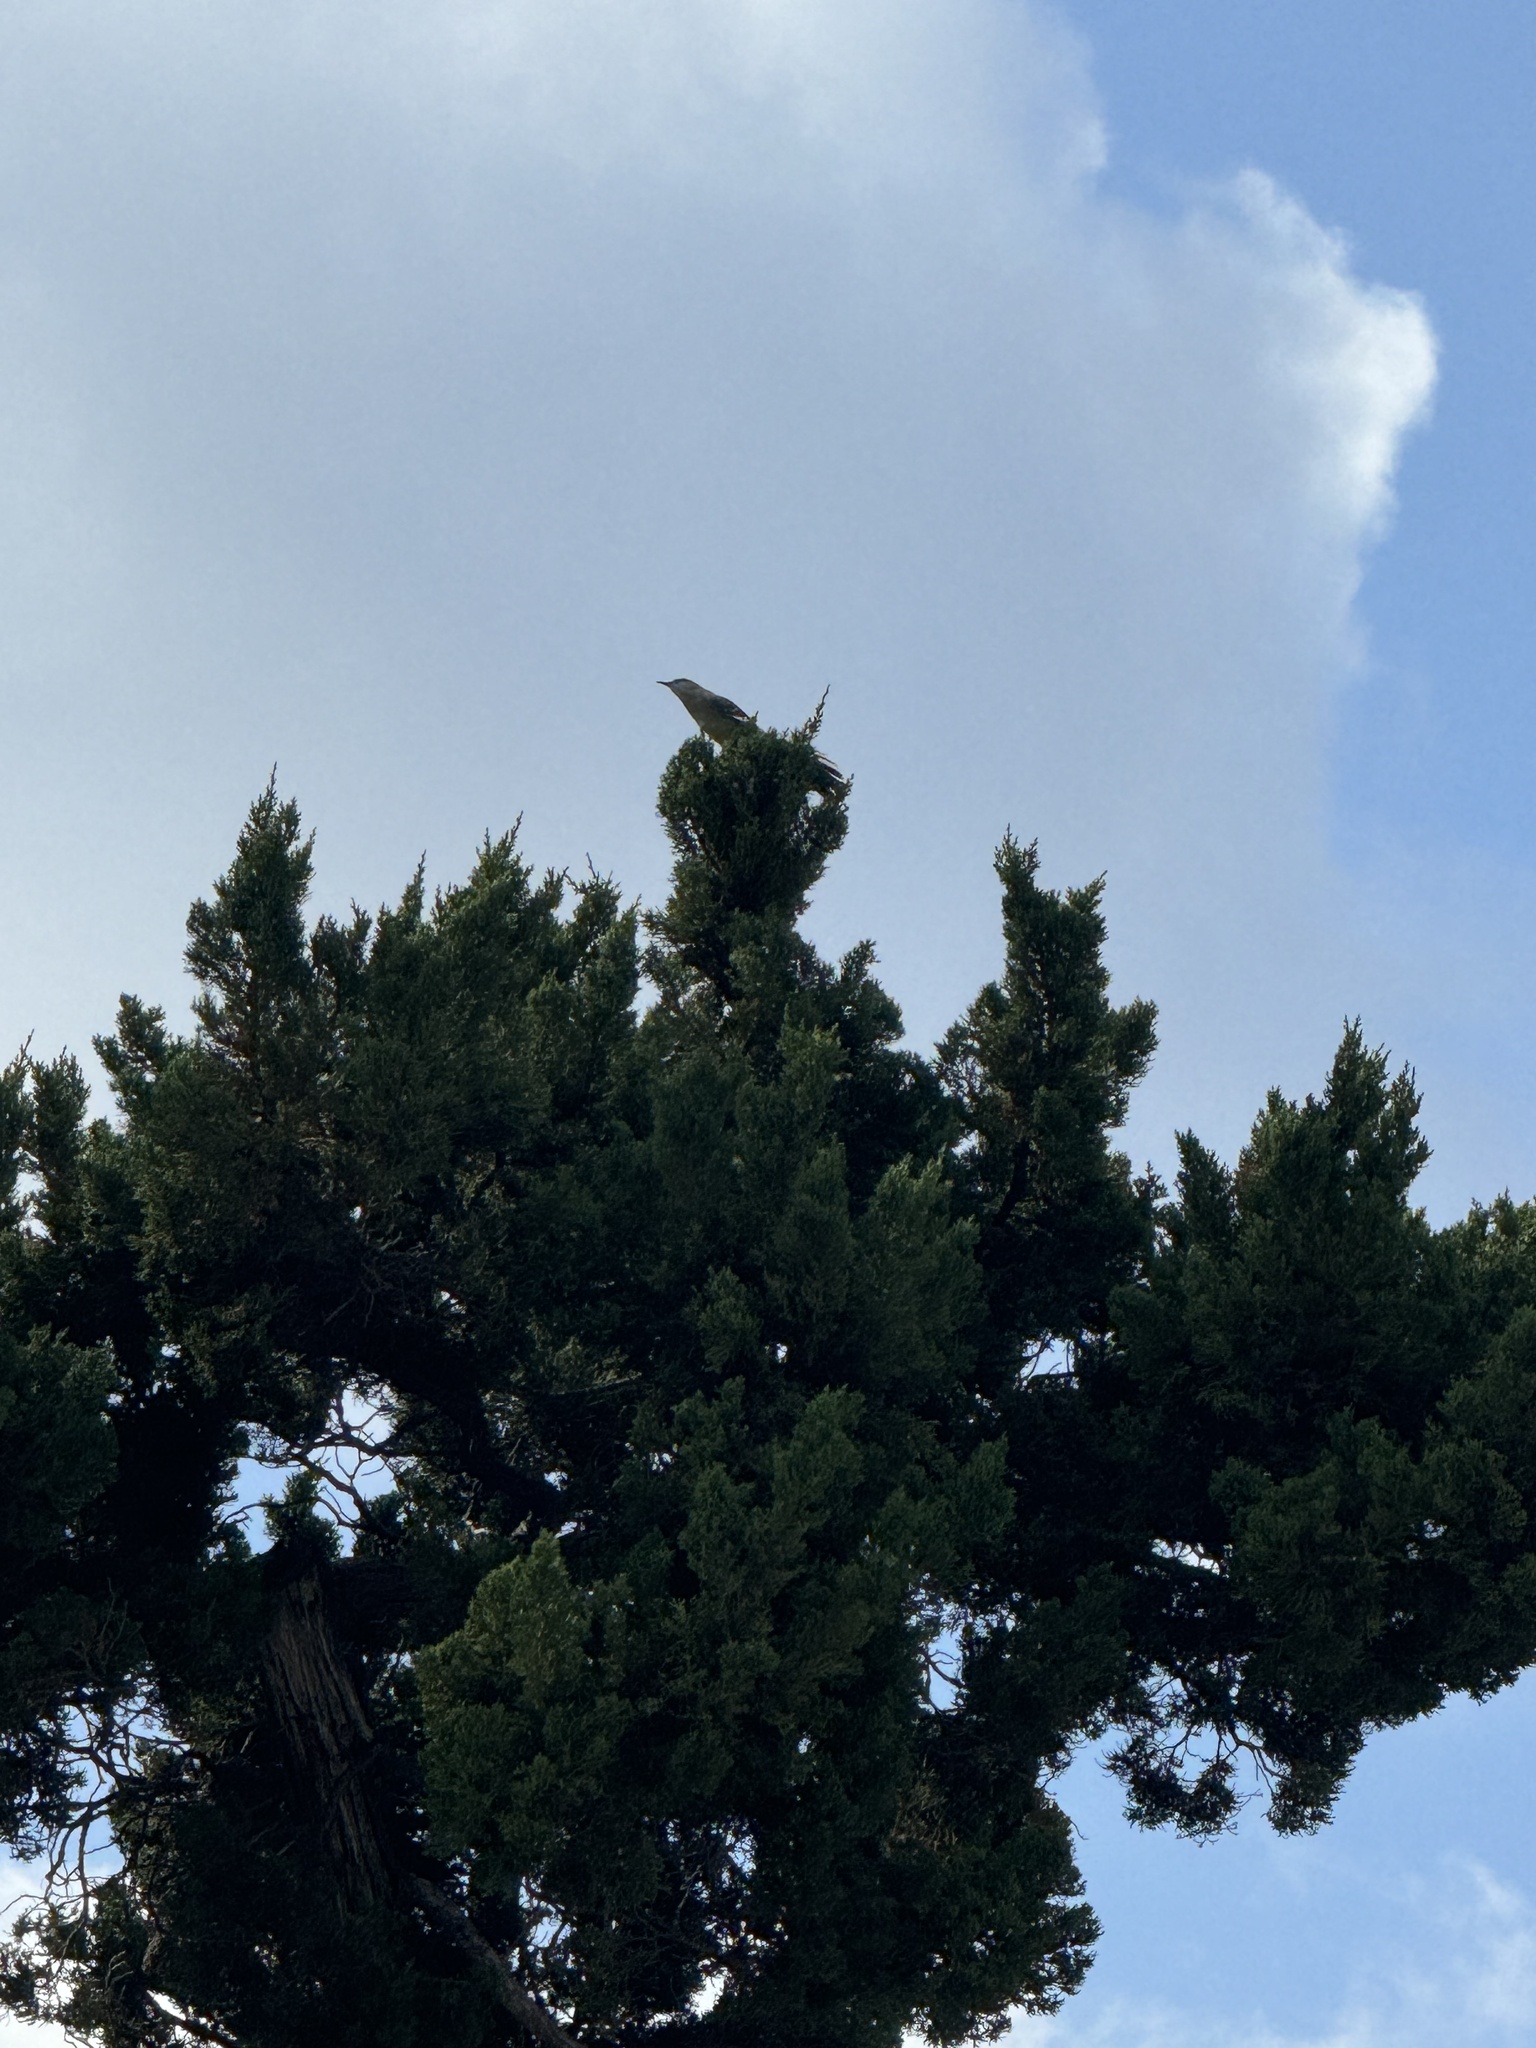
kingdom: Animalia
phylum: Chordata
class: Aves
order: Passeriformes
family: Mimidae
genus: Mimus
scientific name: Mimus polyglottos
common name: Northern mockingbird
